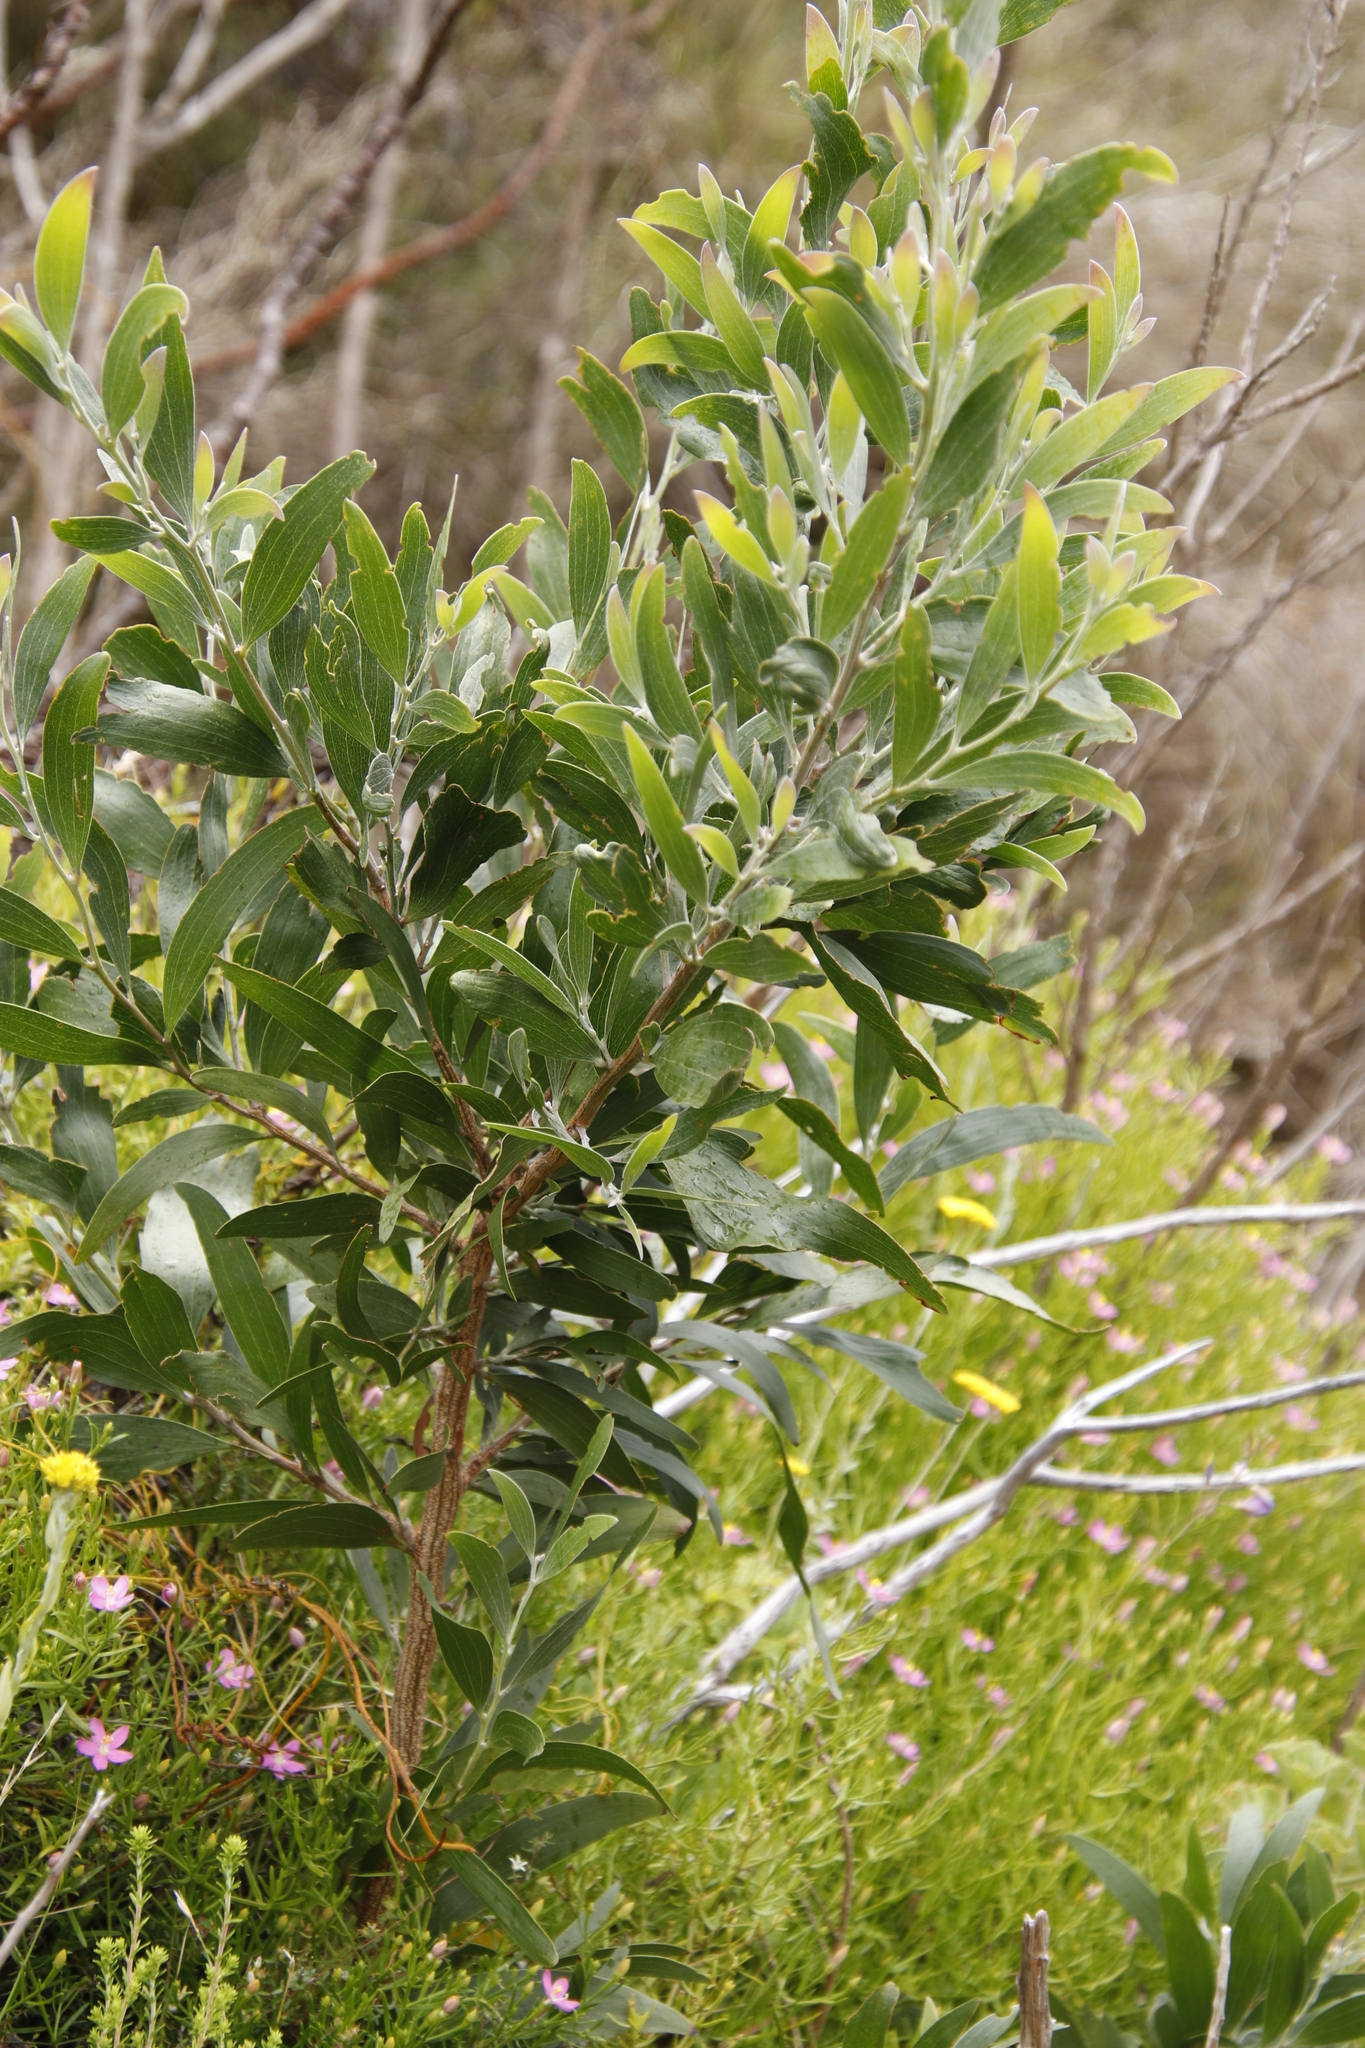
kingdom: Plantae
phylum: Tracheophyta
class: Magnoliopsida
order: Fabales
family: Fabaceae
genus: Acacia
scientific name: Acacia melanoxylon
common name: Blackwood
